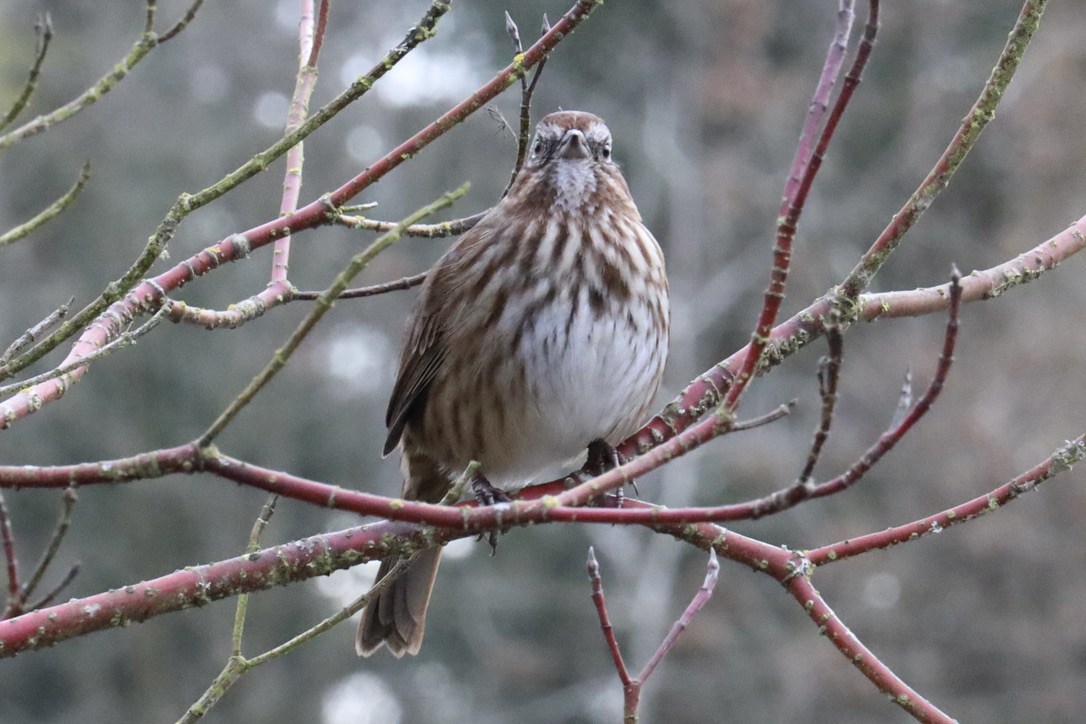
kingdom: Animalia
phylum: Chordata
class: Aves
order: Passeriformes
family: Passerellidae
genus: Melospiza
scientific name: Melospiza melodia
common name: Song sparrow
